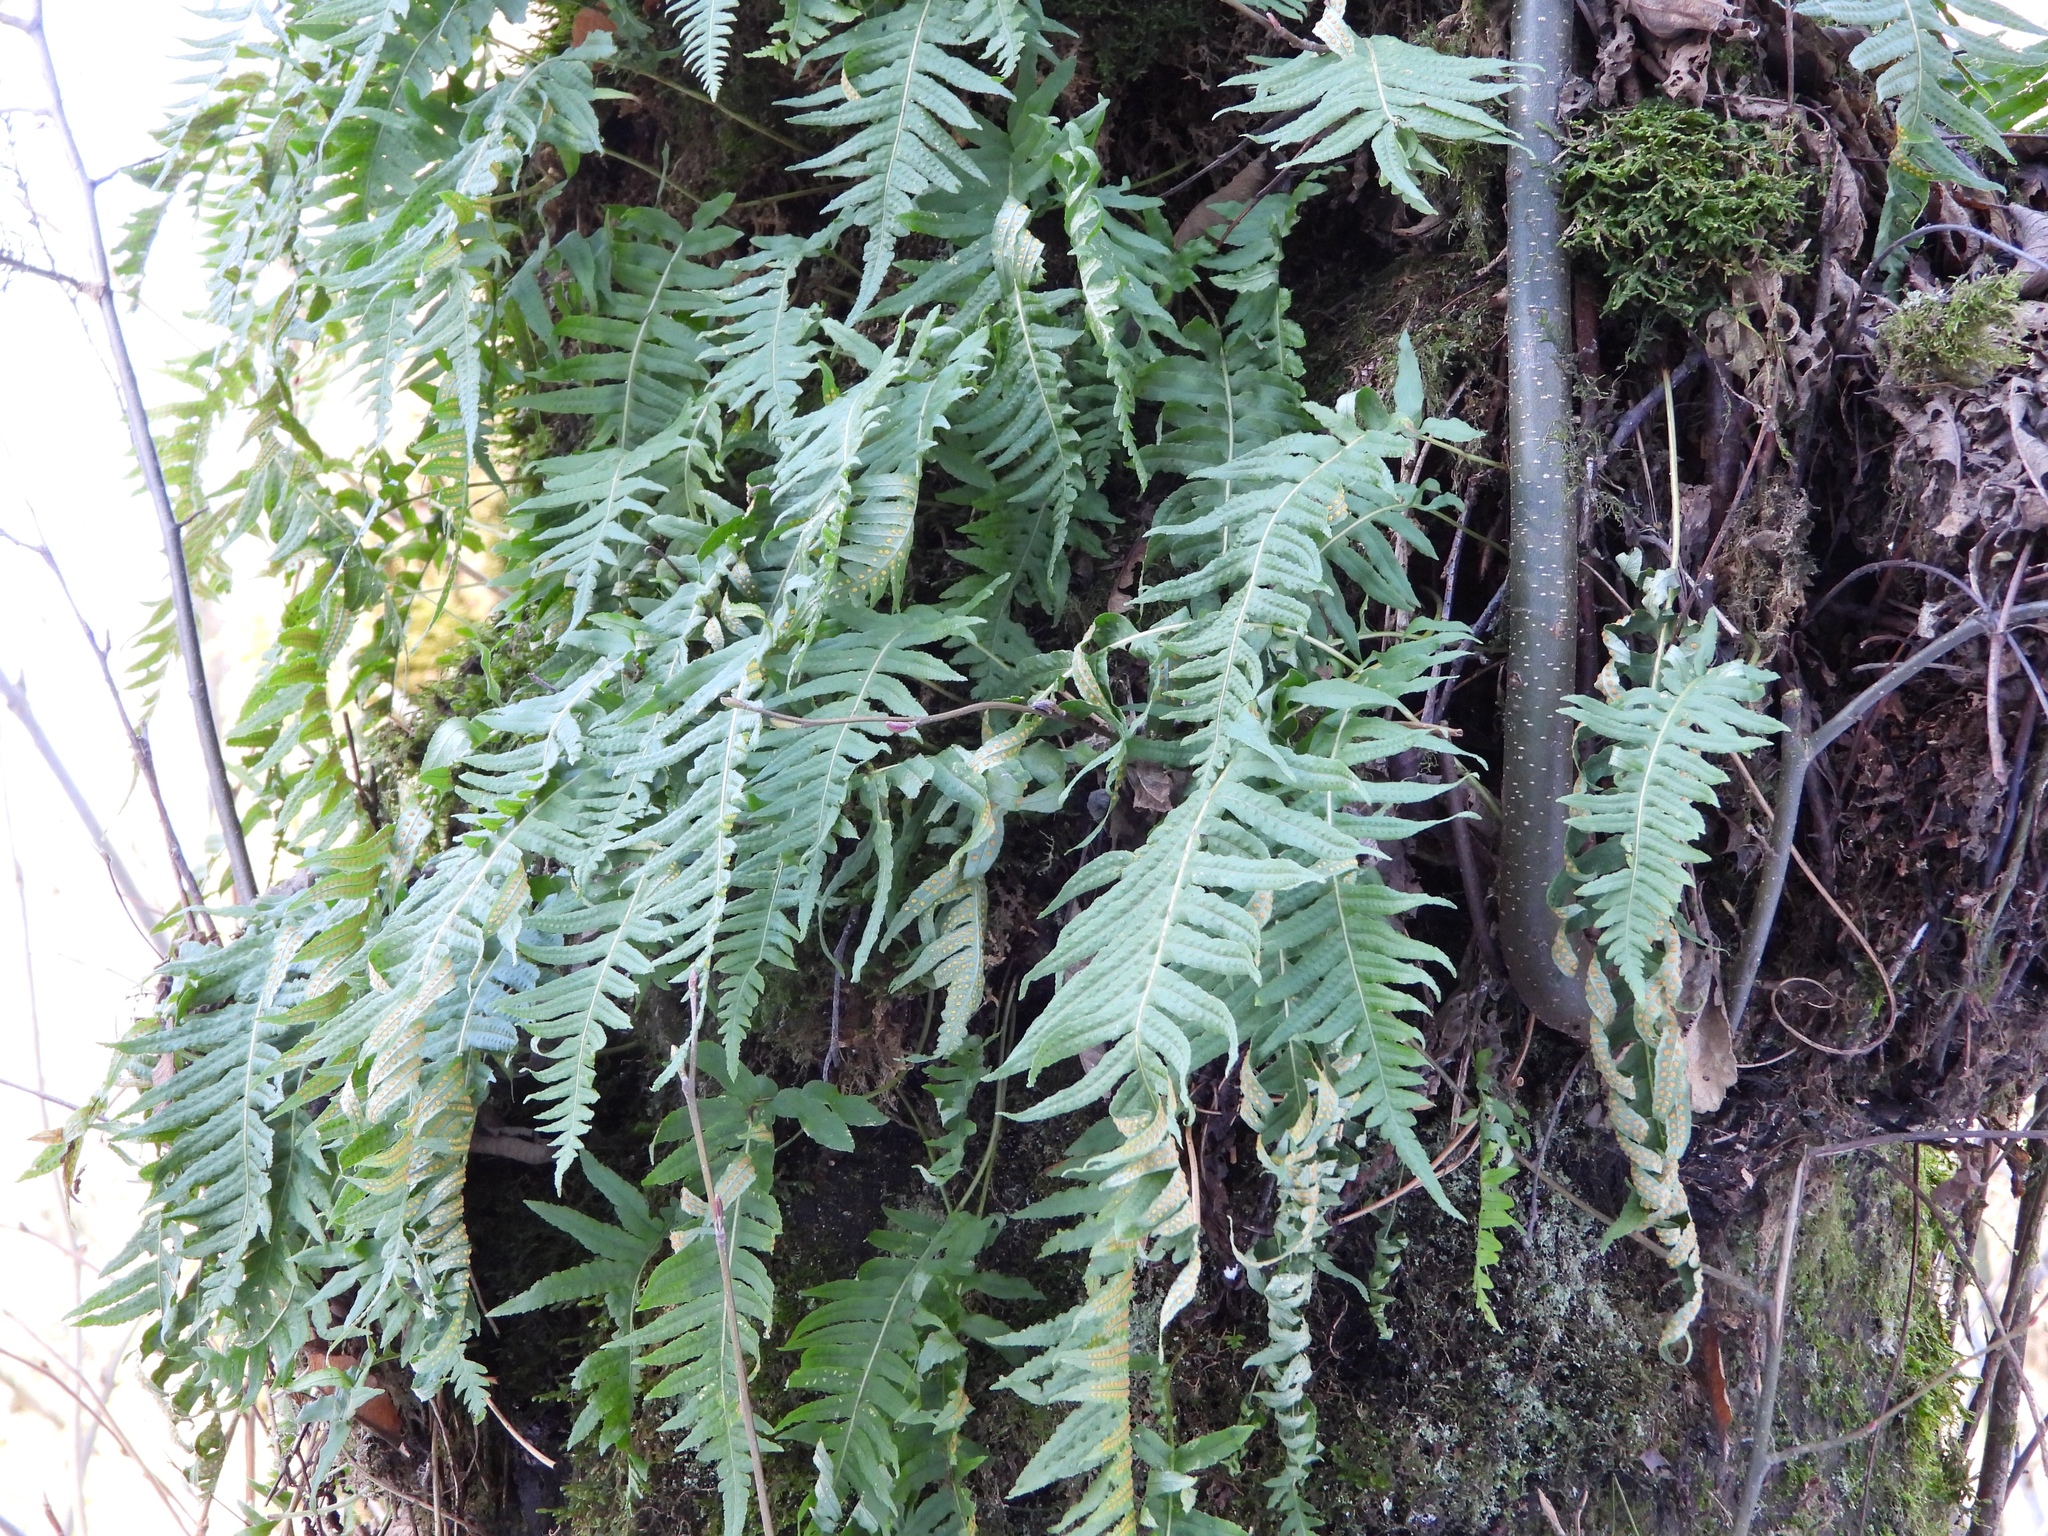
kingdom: Plantae
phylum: Tracheophyta
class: Polypodiopsida
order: Polypodiales
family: Polypodiaceae
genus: Polypodium
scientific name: Polypodium glycyrrhiza
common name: Licorice fern
